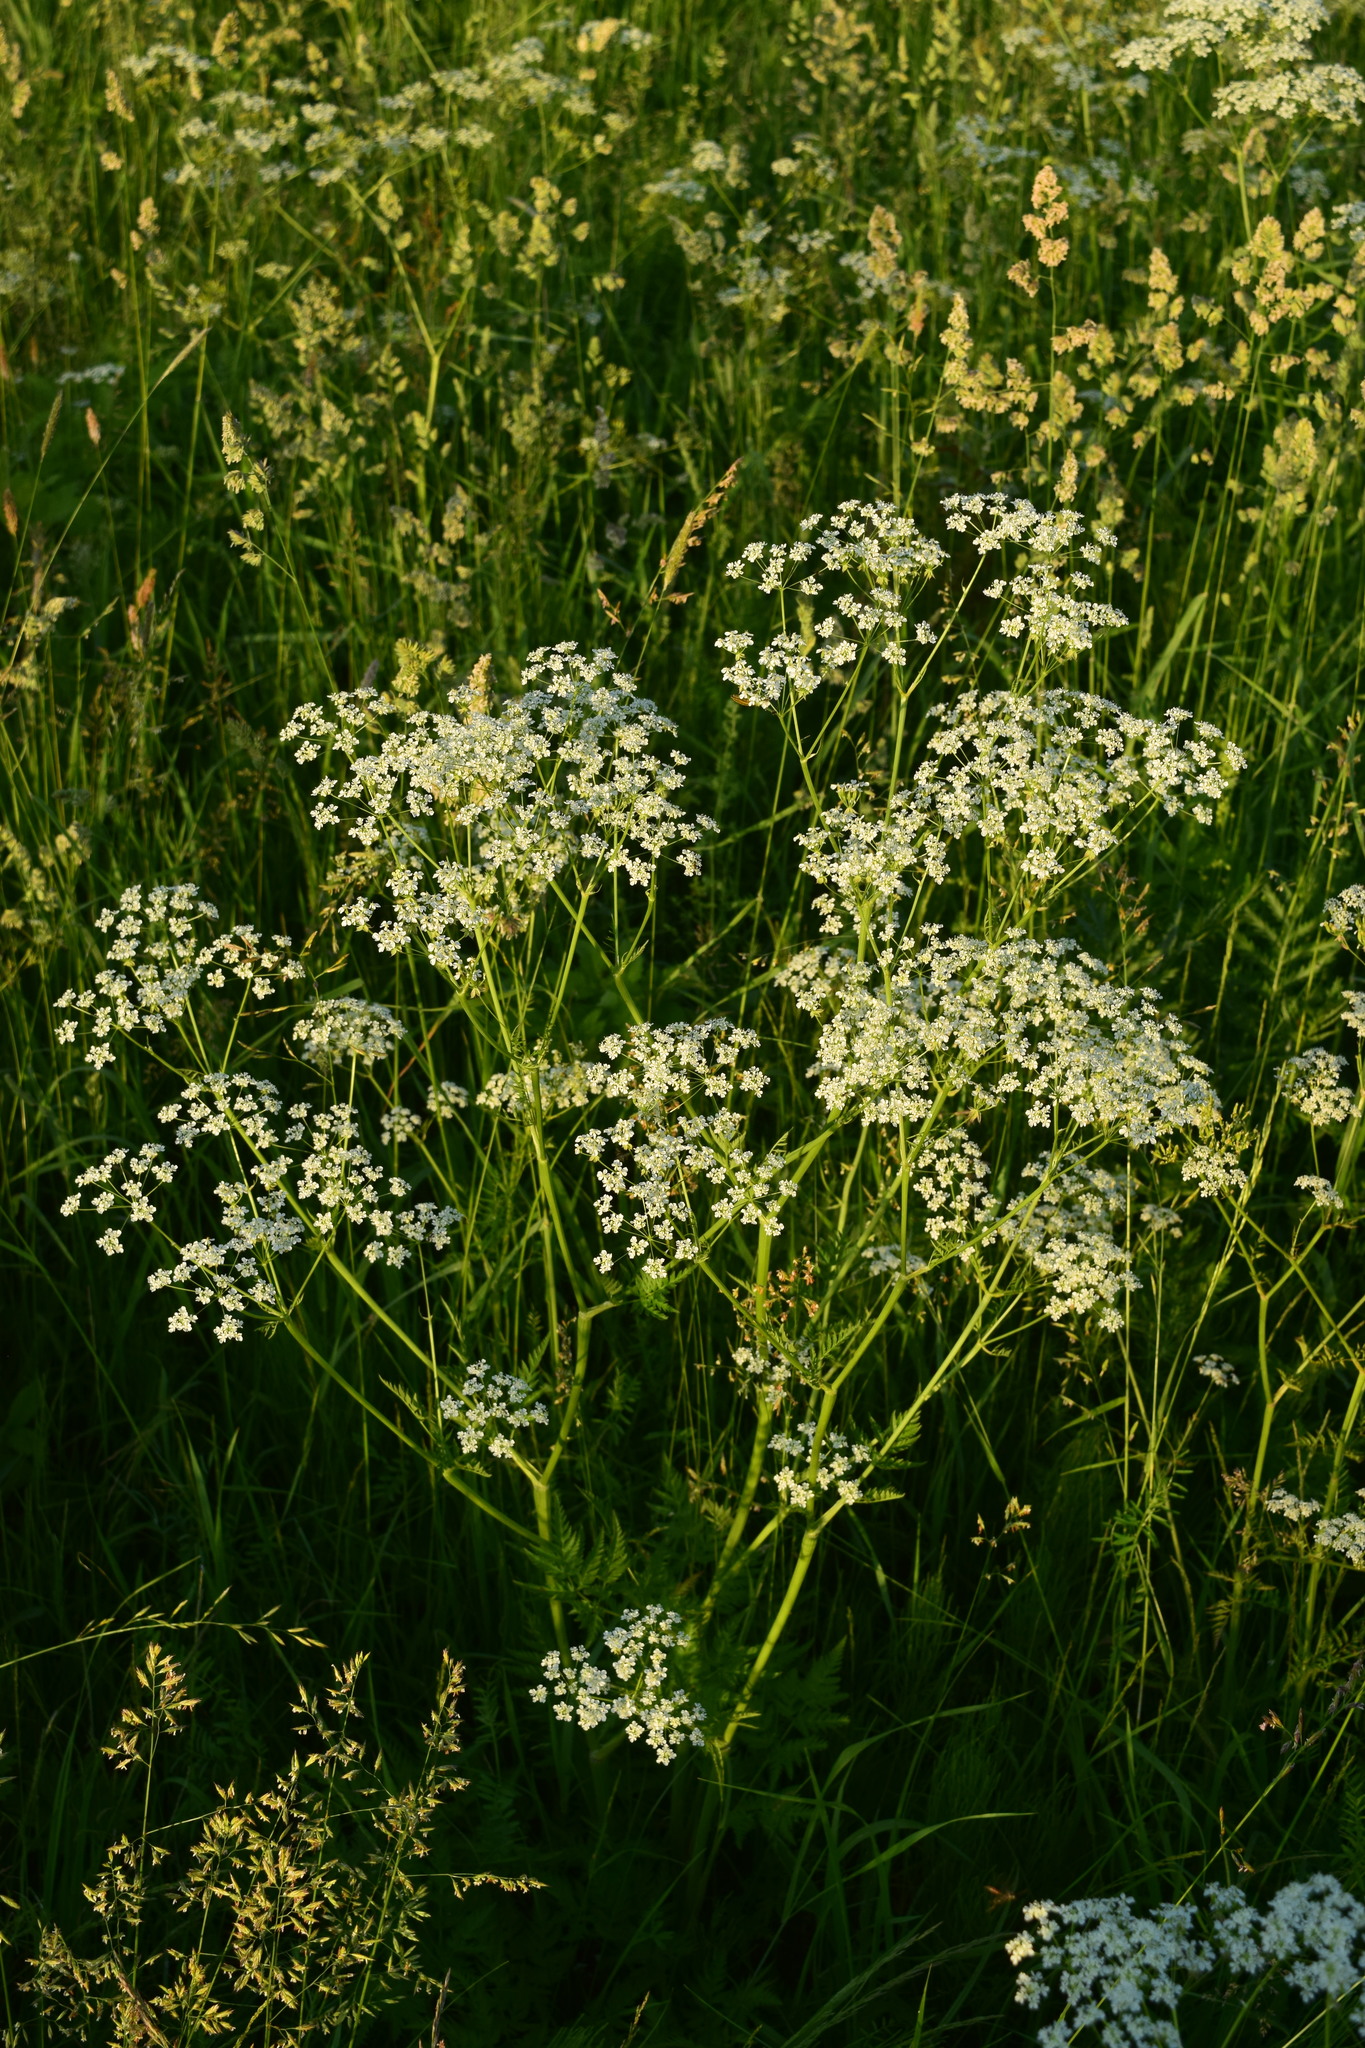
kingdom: Plantae
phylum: Tracheophyta
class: Magnoliopsida
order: Apiales
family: Apiaceae
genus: Anthriscus
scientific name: Anthriscus sylvestris
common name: Cow parsley
